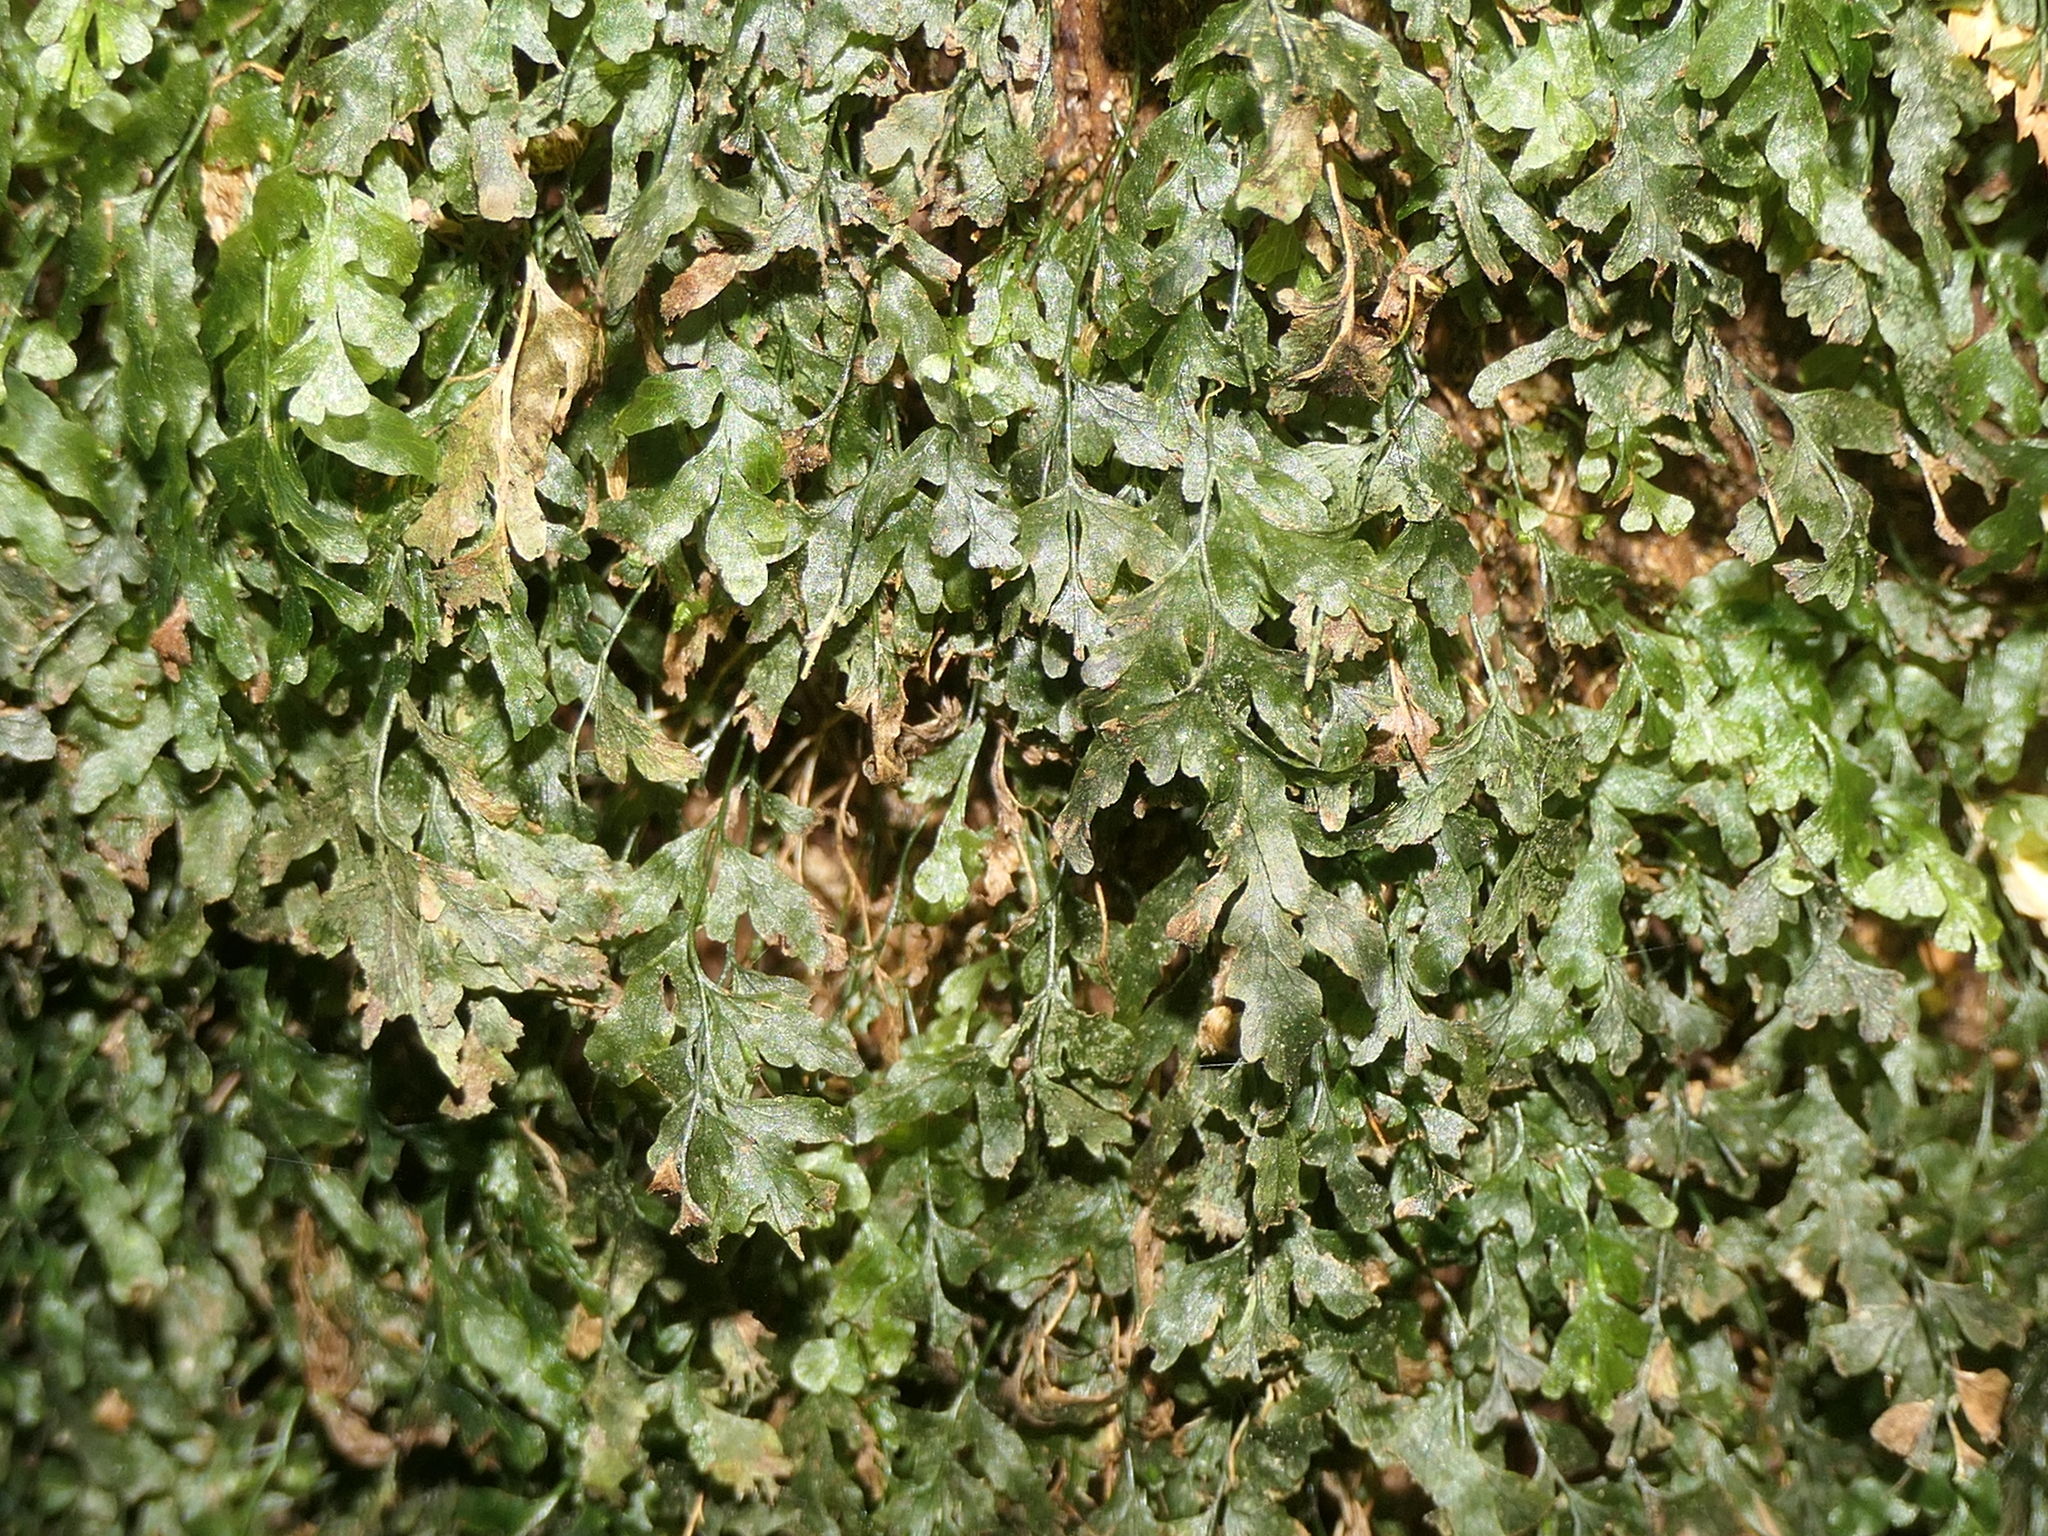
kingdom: Plantae
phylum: Tracheophyta
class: Polypodiopsida
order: Hymenophyllales
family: Hymenophyllaceae
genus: Polyphlebium
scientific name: Polyphlebium venosum
